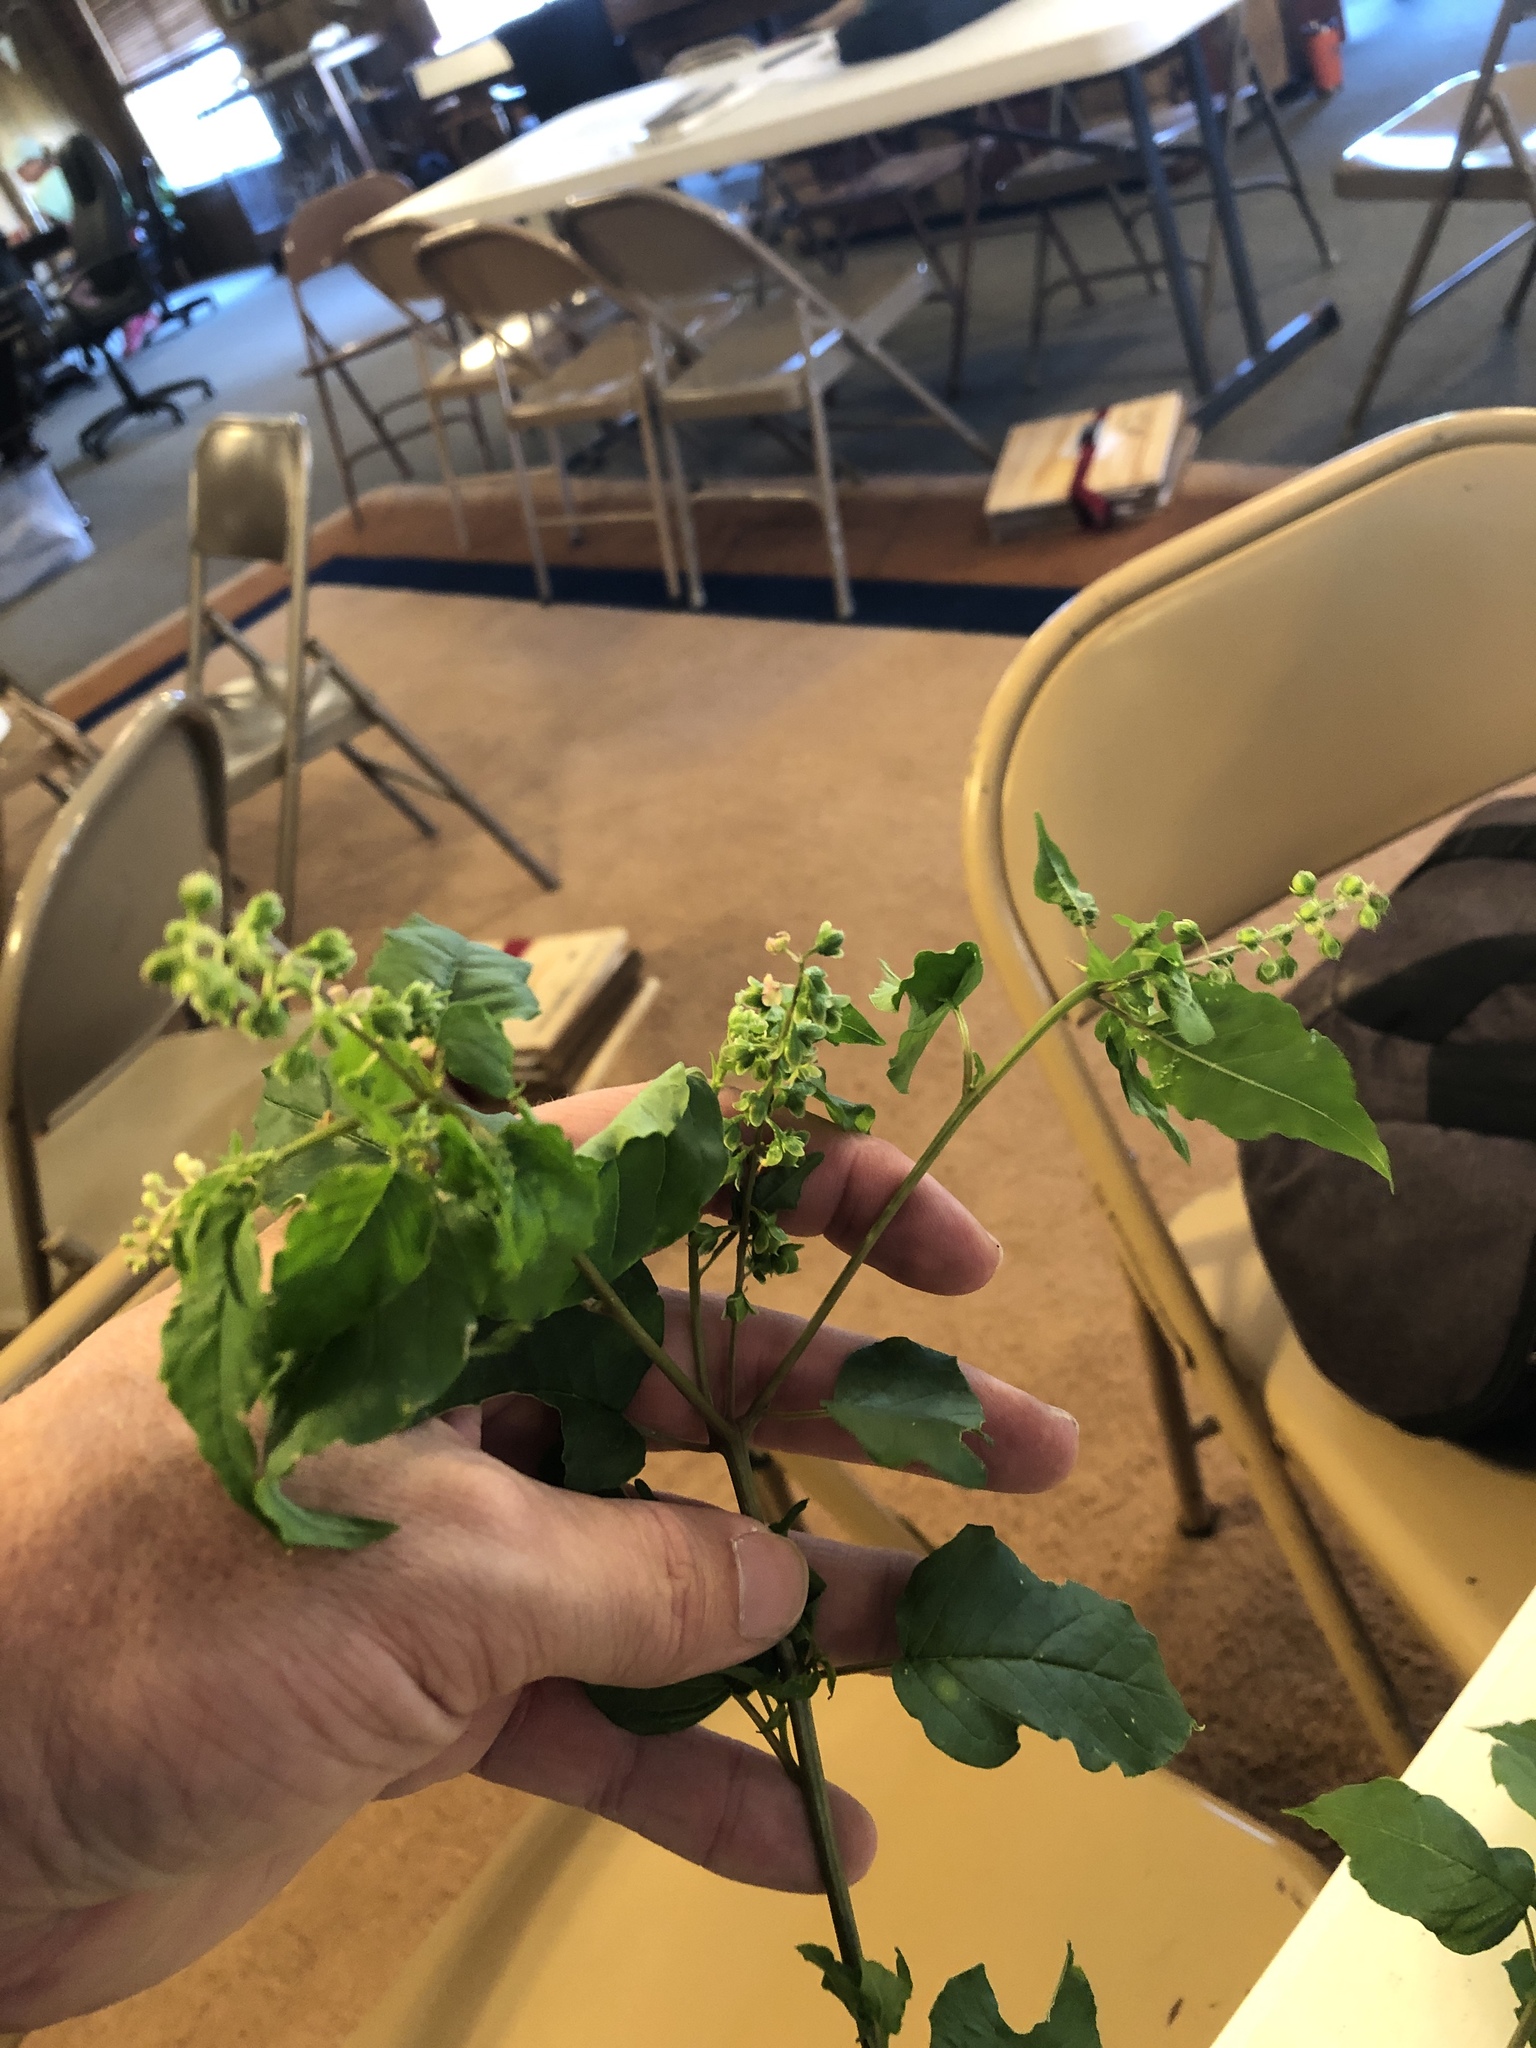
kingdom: Plantae
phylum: Tracheophyta
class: Magnoliopsida
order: Caryophyllales
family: Phytolaccaceae
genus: Rivina
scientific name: Rivina humilis
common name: Rougeplant
